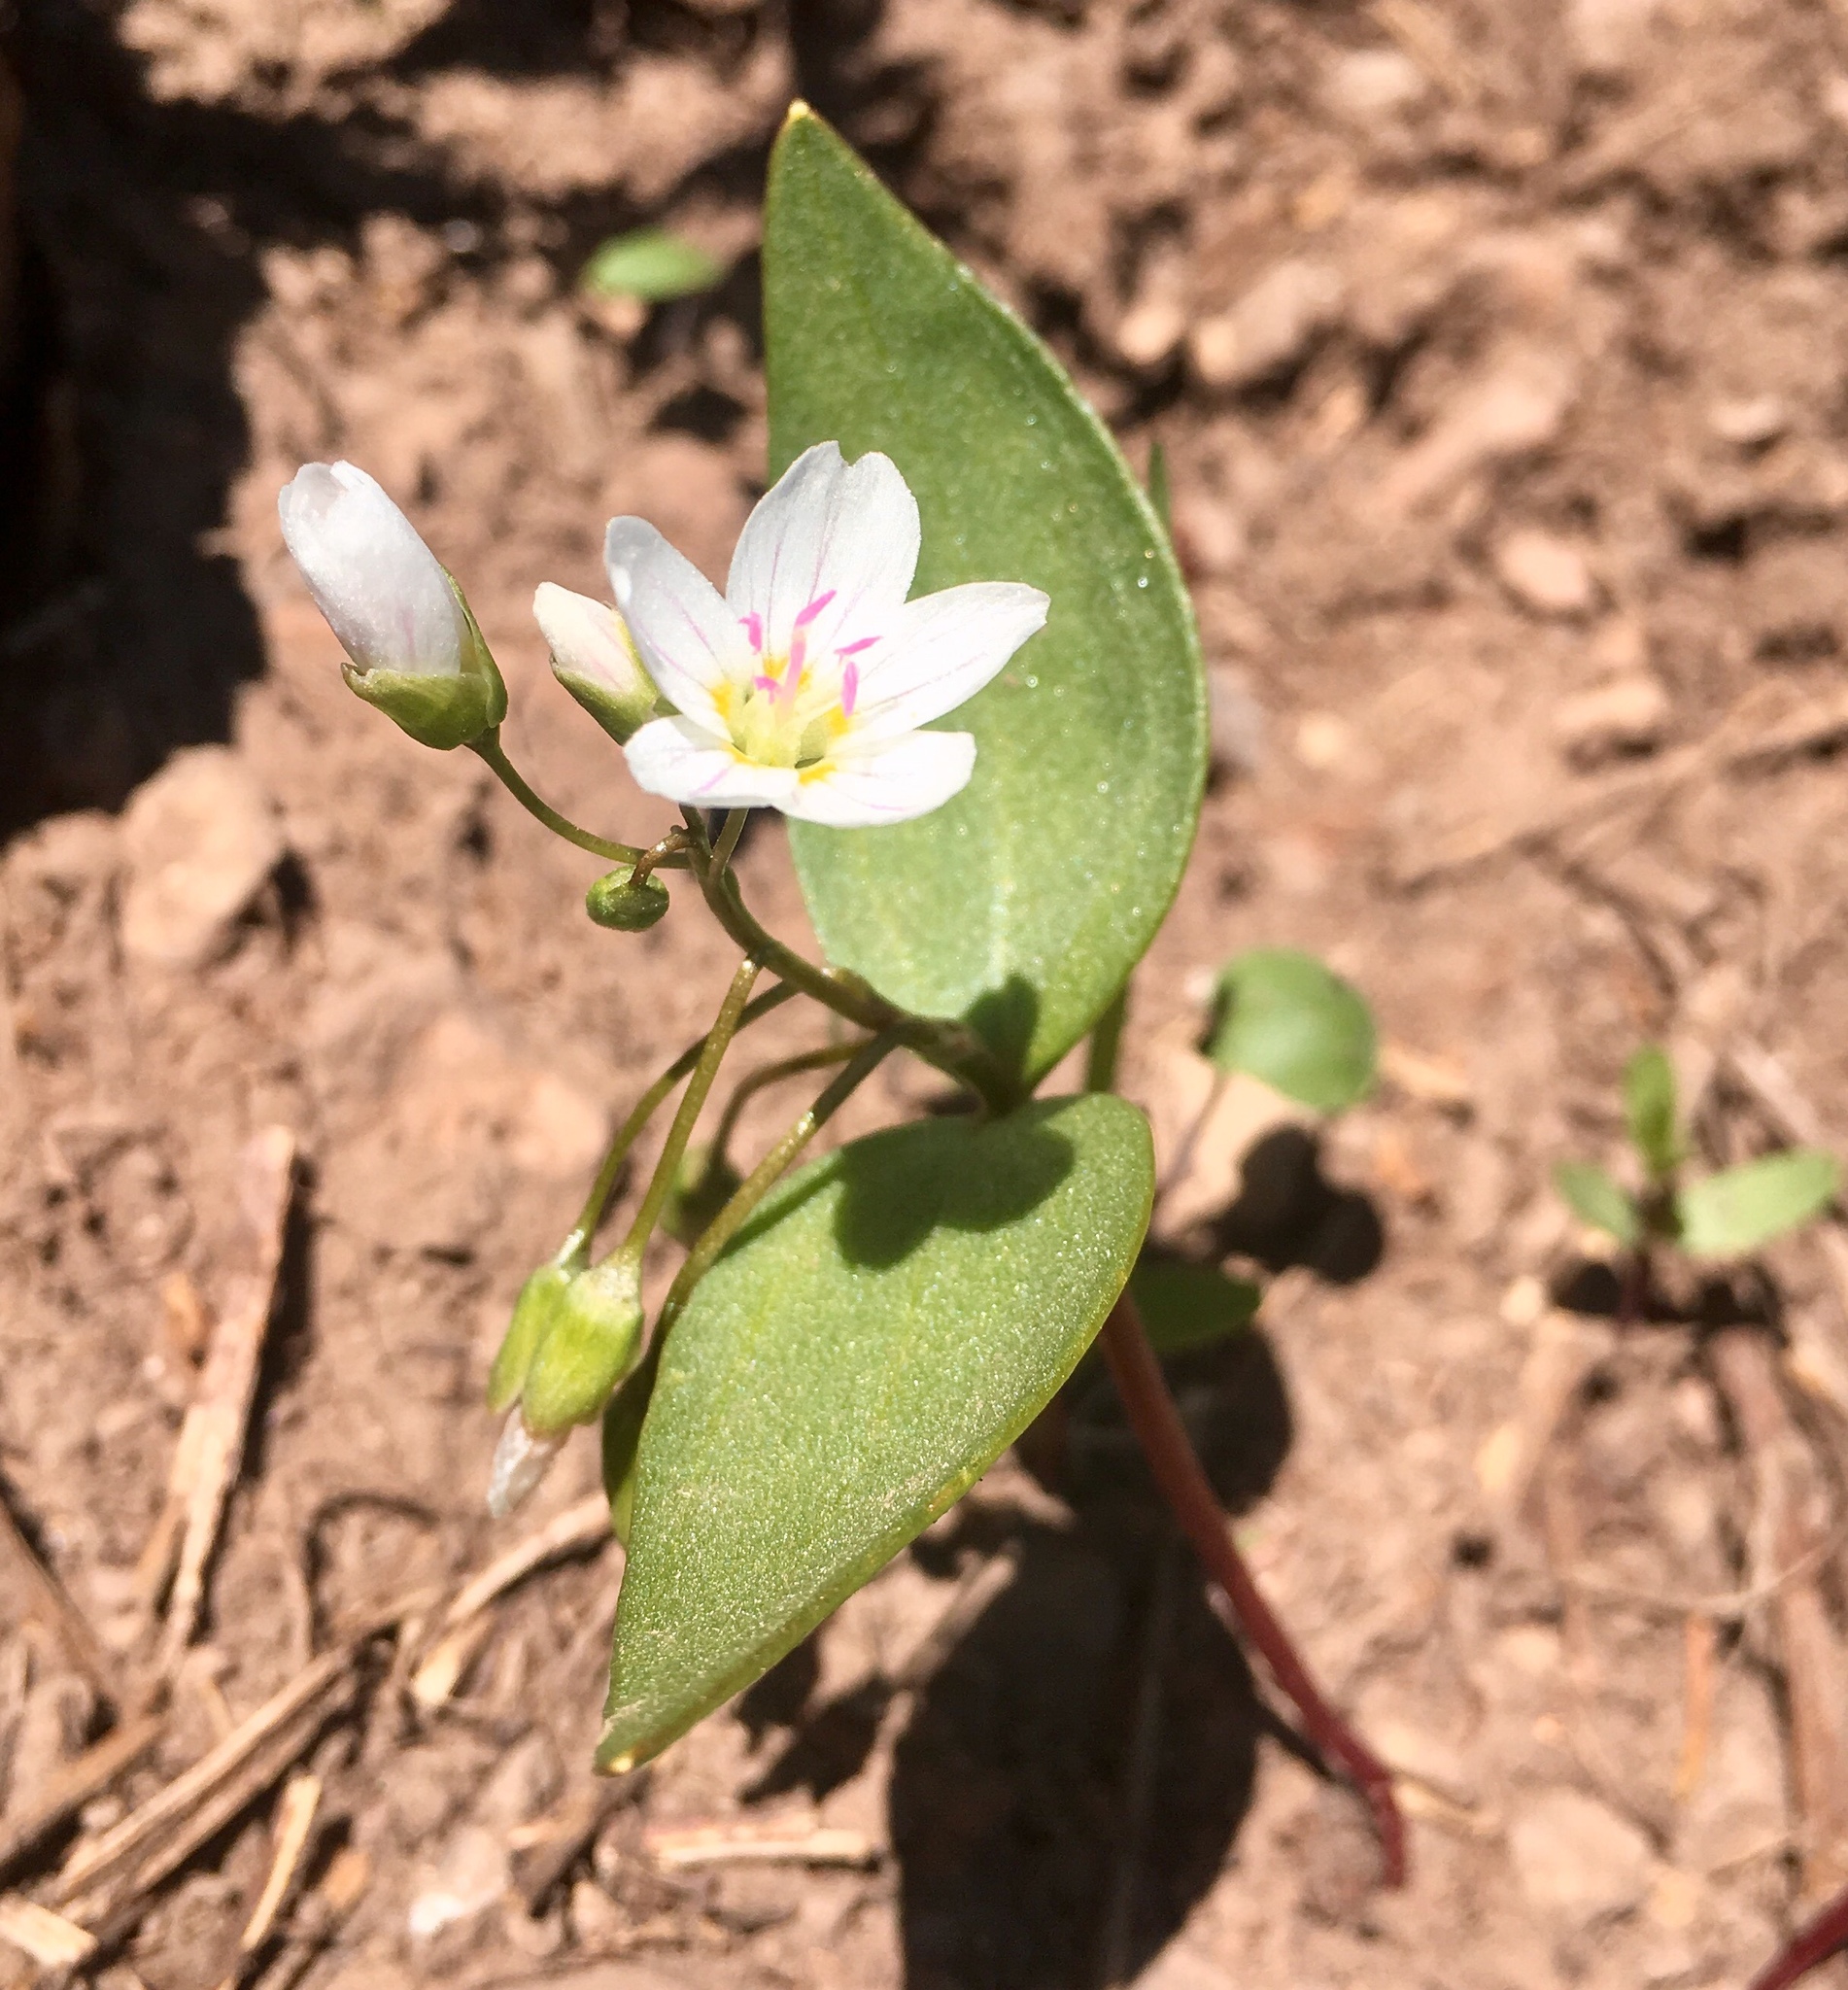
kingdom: Plantae
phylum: Tracheophyta
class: Magnoliopsida
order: Caryophyllales
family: Montiaceae
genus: Claytonia
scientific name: Claytonia lanceolata
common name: Western spring-beauty
